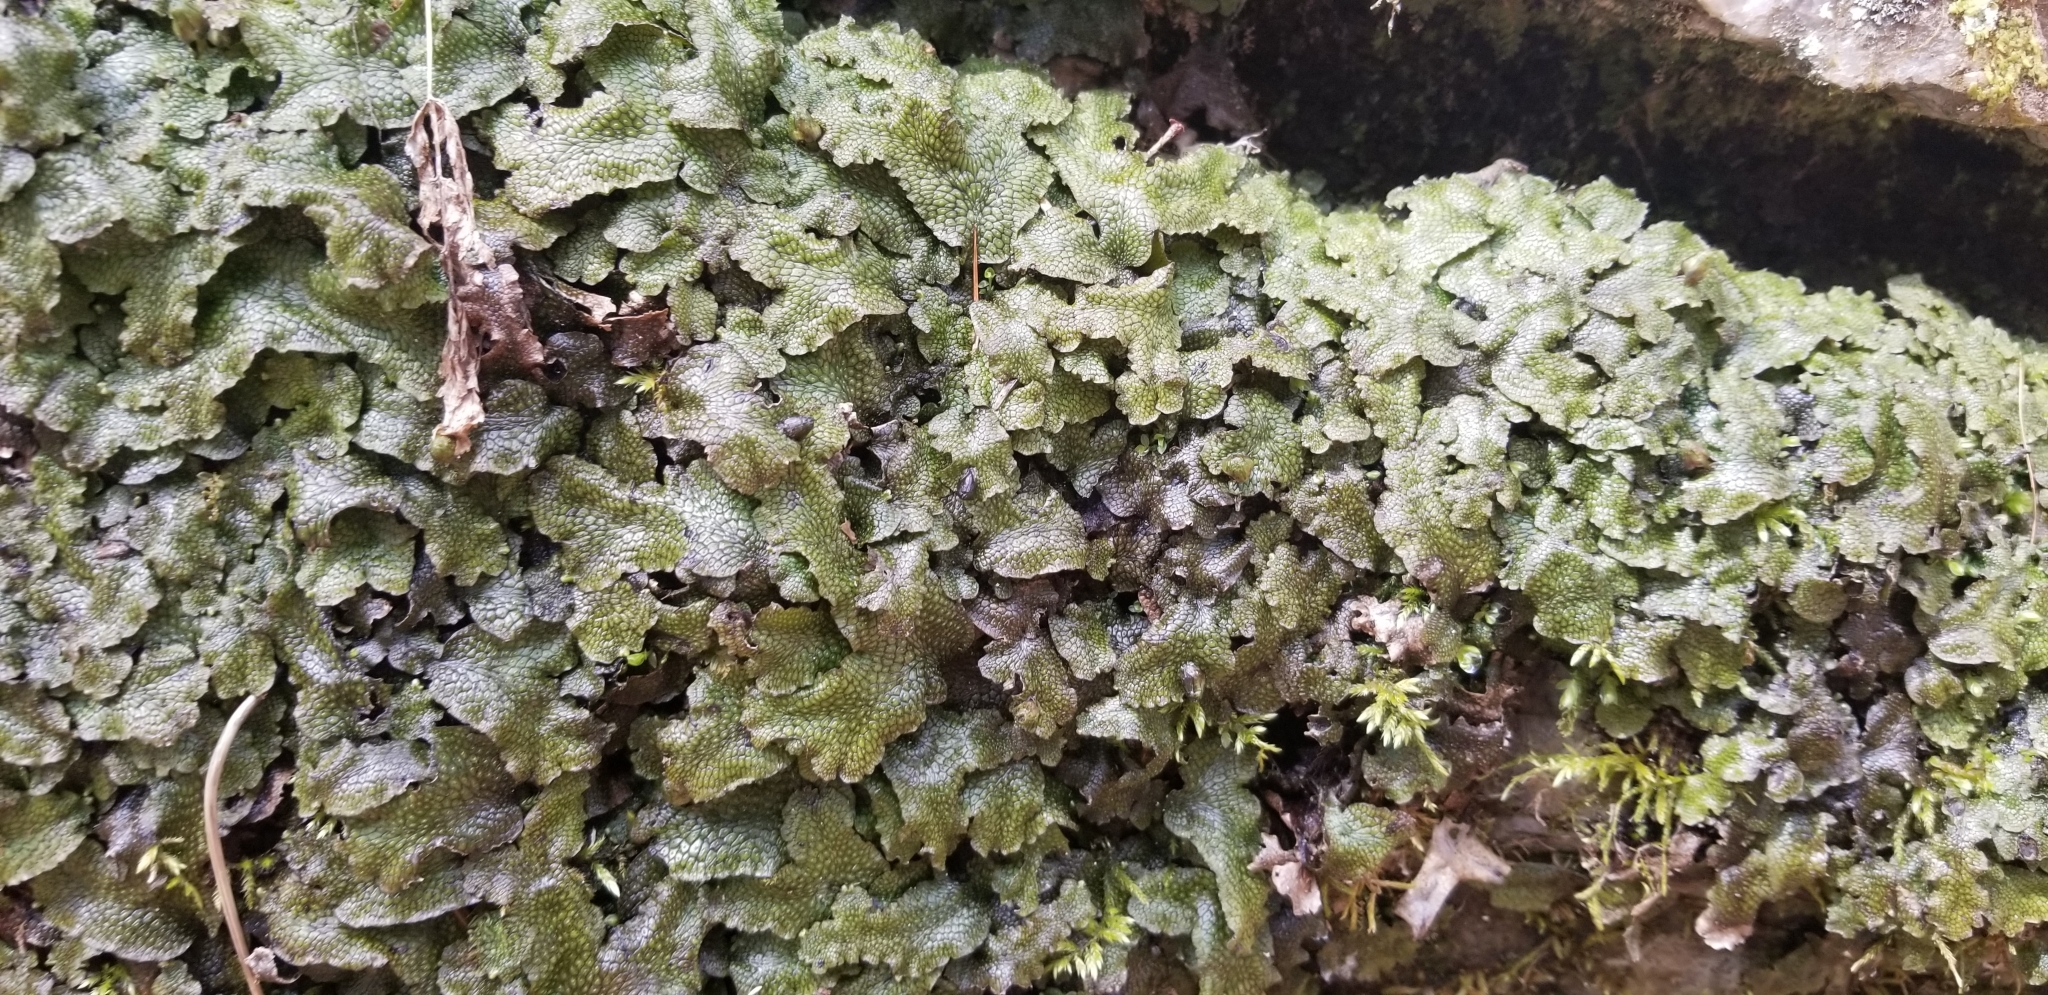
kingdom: Plantae
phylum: Marchantiophyta
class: Marchantiopsida
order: Marchantiales
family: Conocephalaceae
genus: Conocephalum
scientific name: Conocephalum salebrosum
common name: Cat-tongue liverwort
